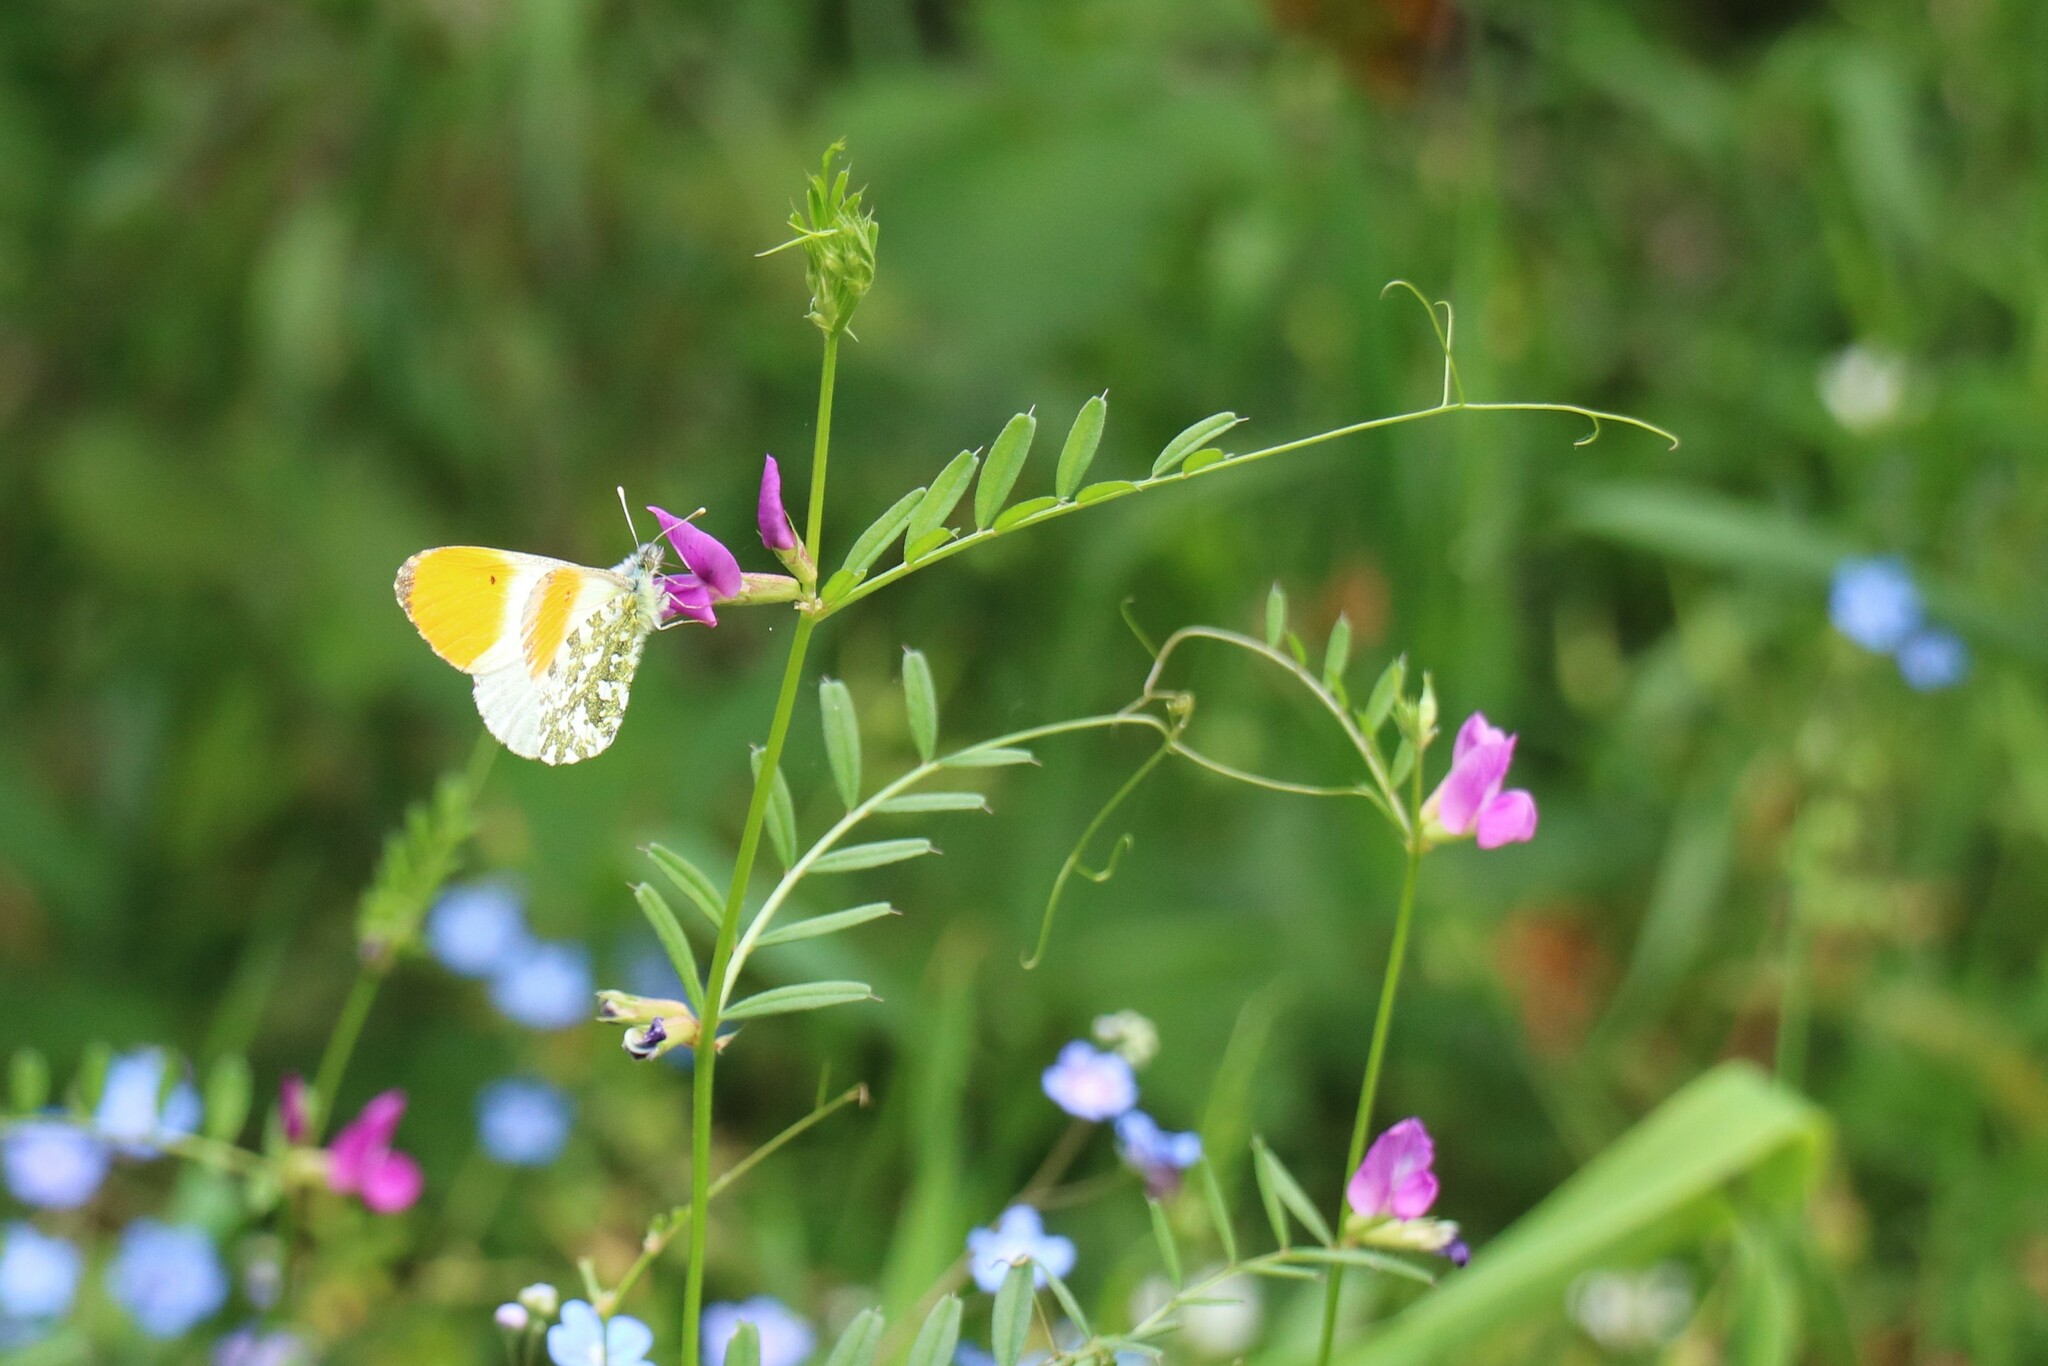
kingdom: Animalia
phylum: Arthropoda
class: Insecta
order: Lepidoptera
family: Pieridae
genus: Anthocharis
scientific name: Anthocharis cardamines
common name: Orange-tip
